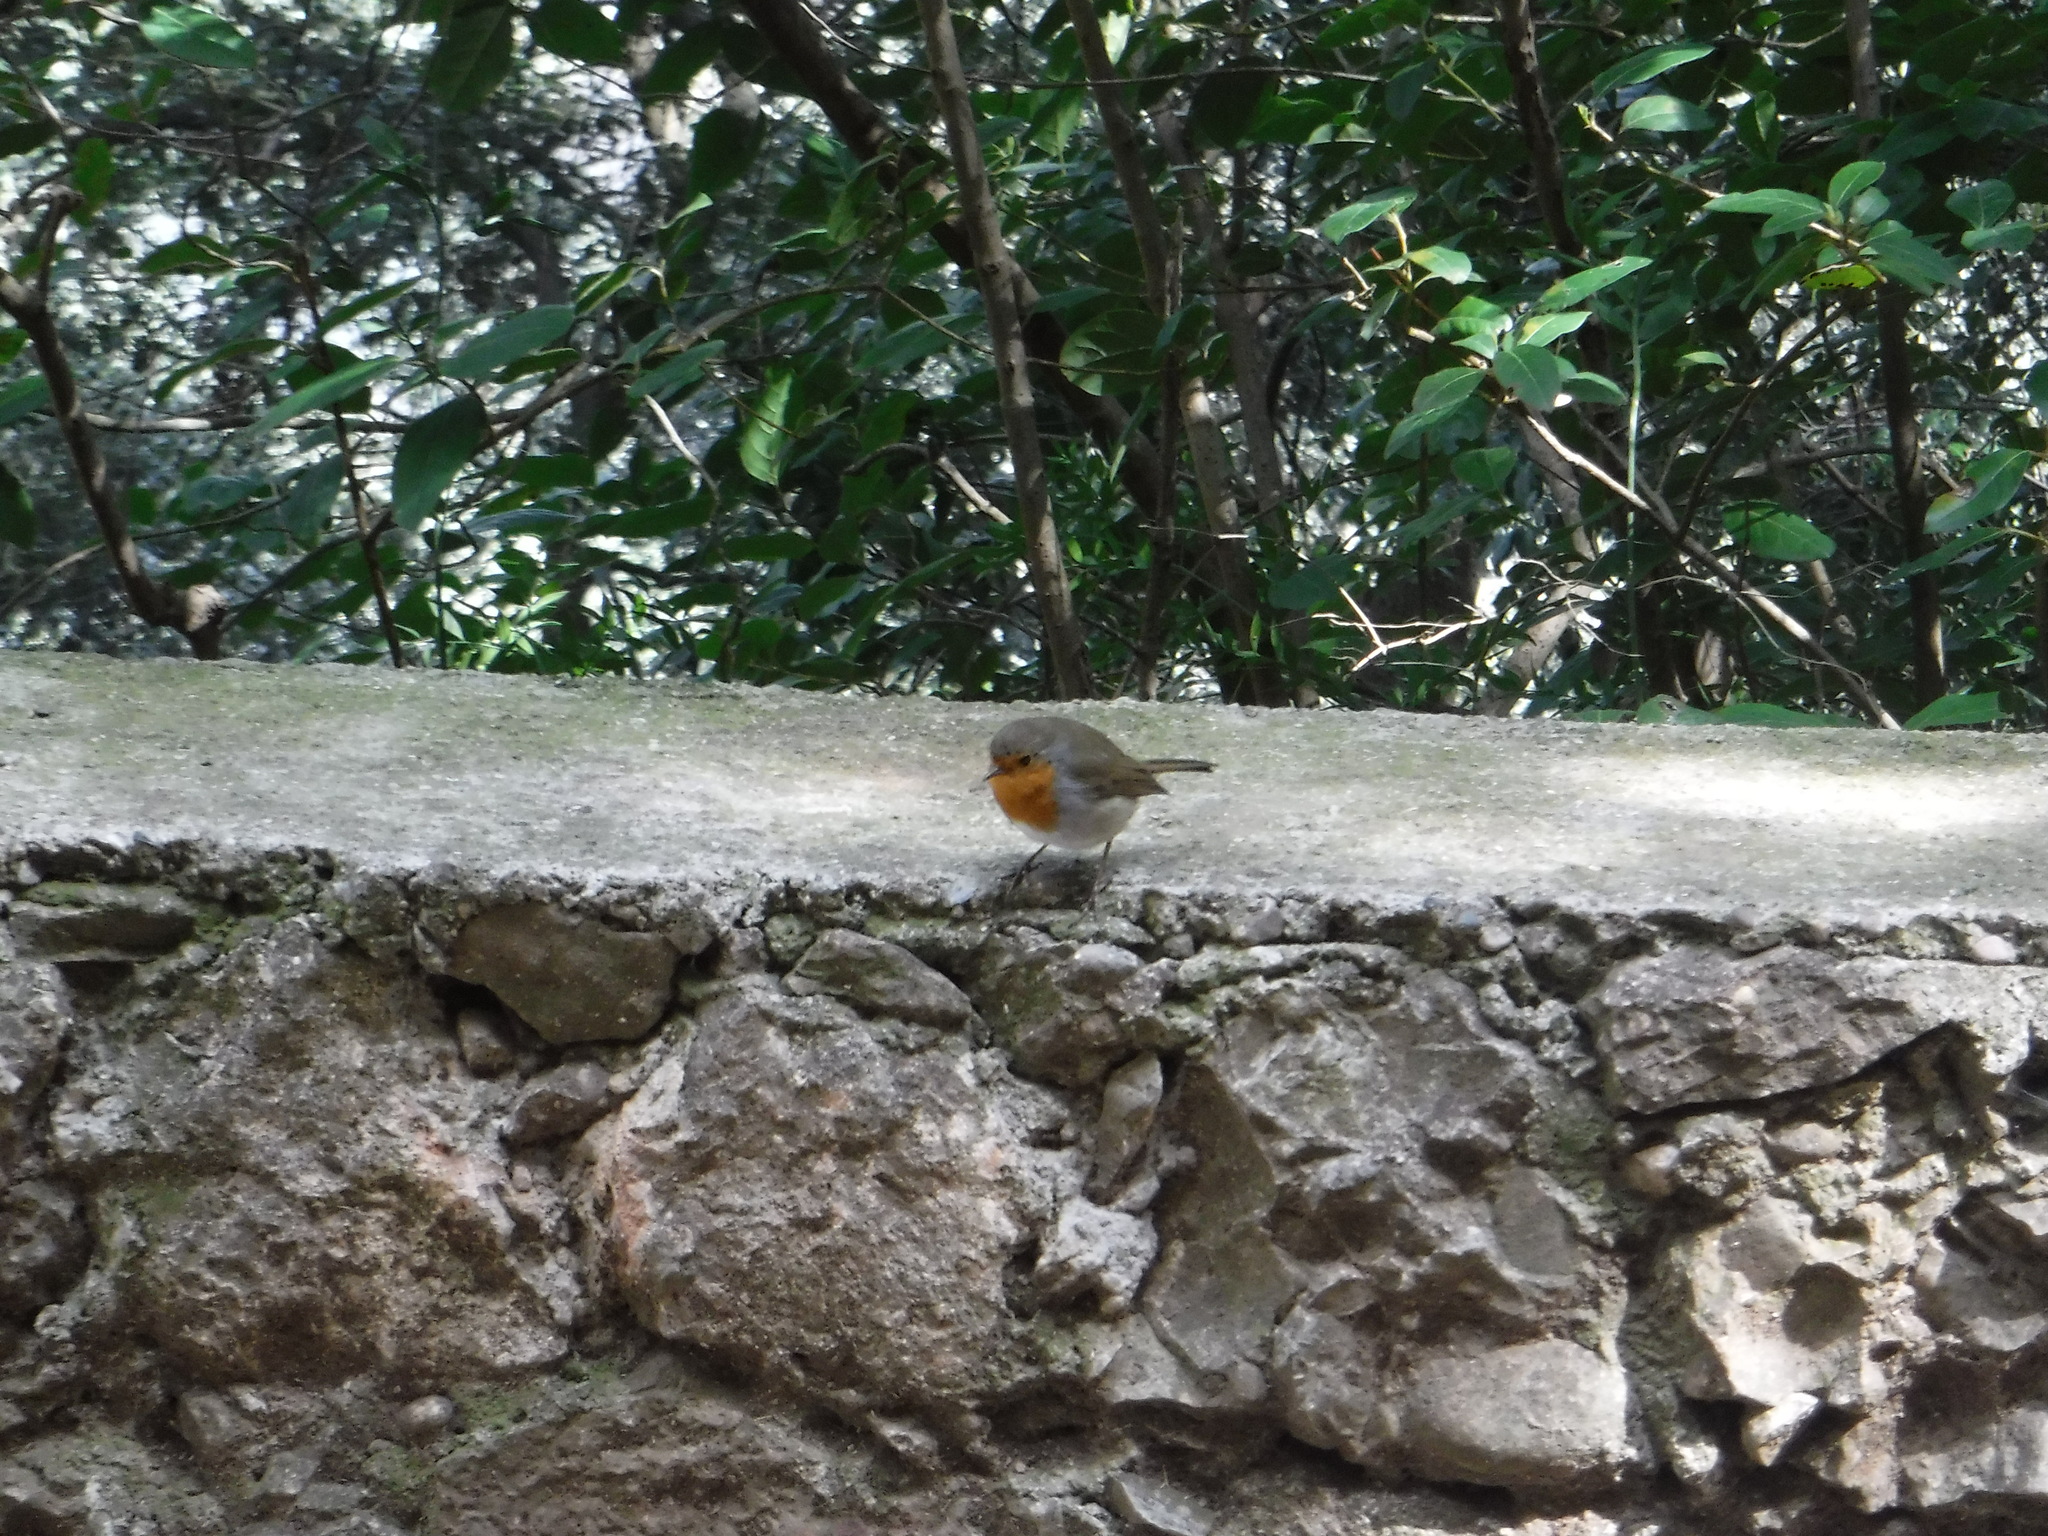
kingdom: Animalia
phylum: Chordata
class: Aves
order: Passeriformes
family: Muscicapidae
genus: Erithacus
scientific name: Erithacus rubecula
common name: European robin
